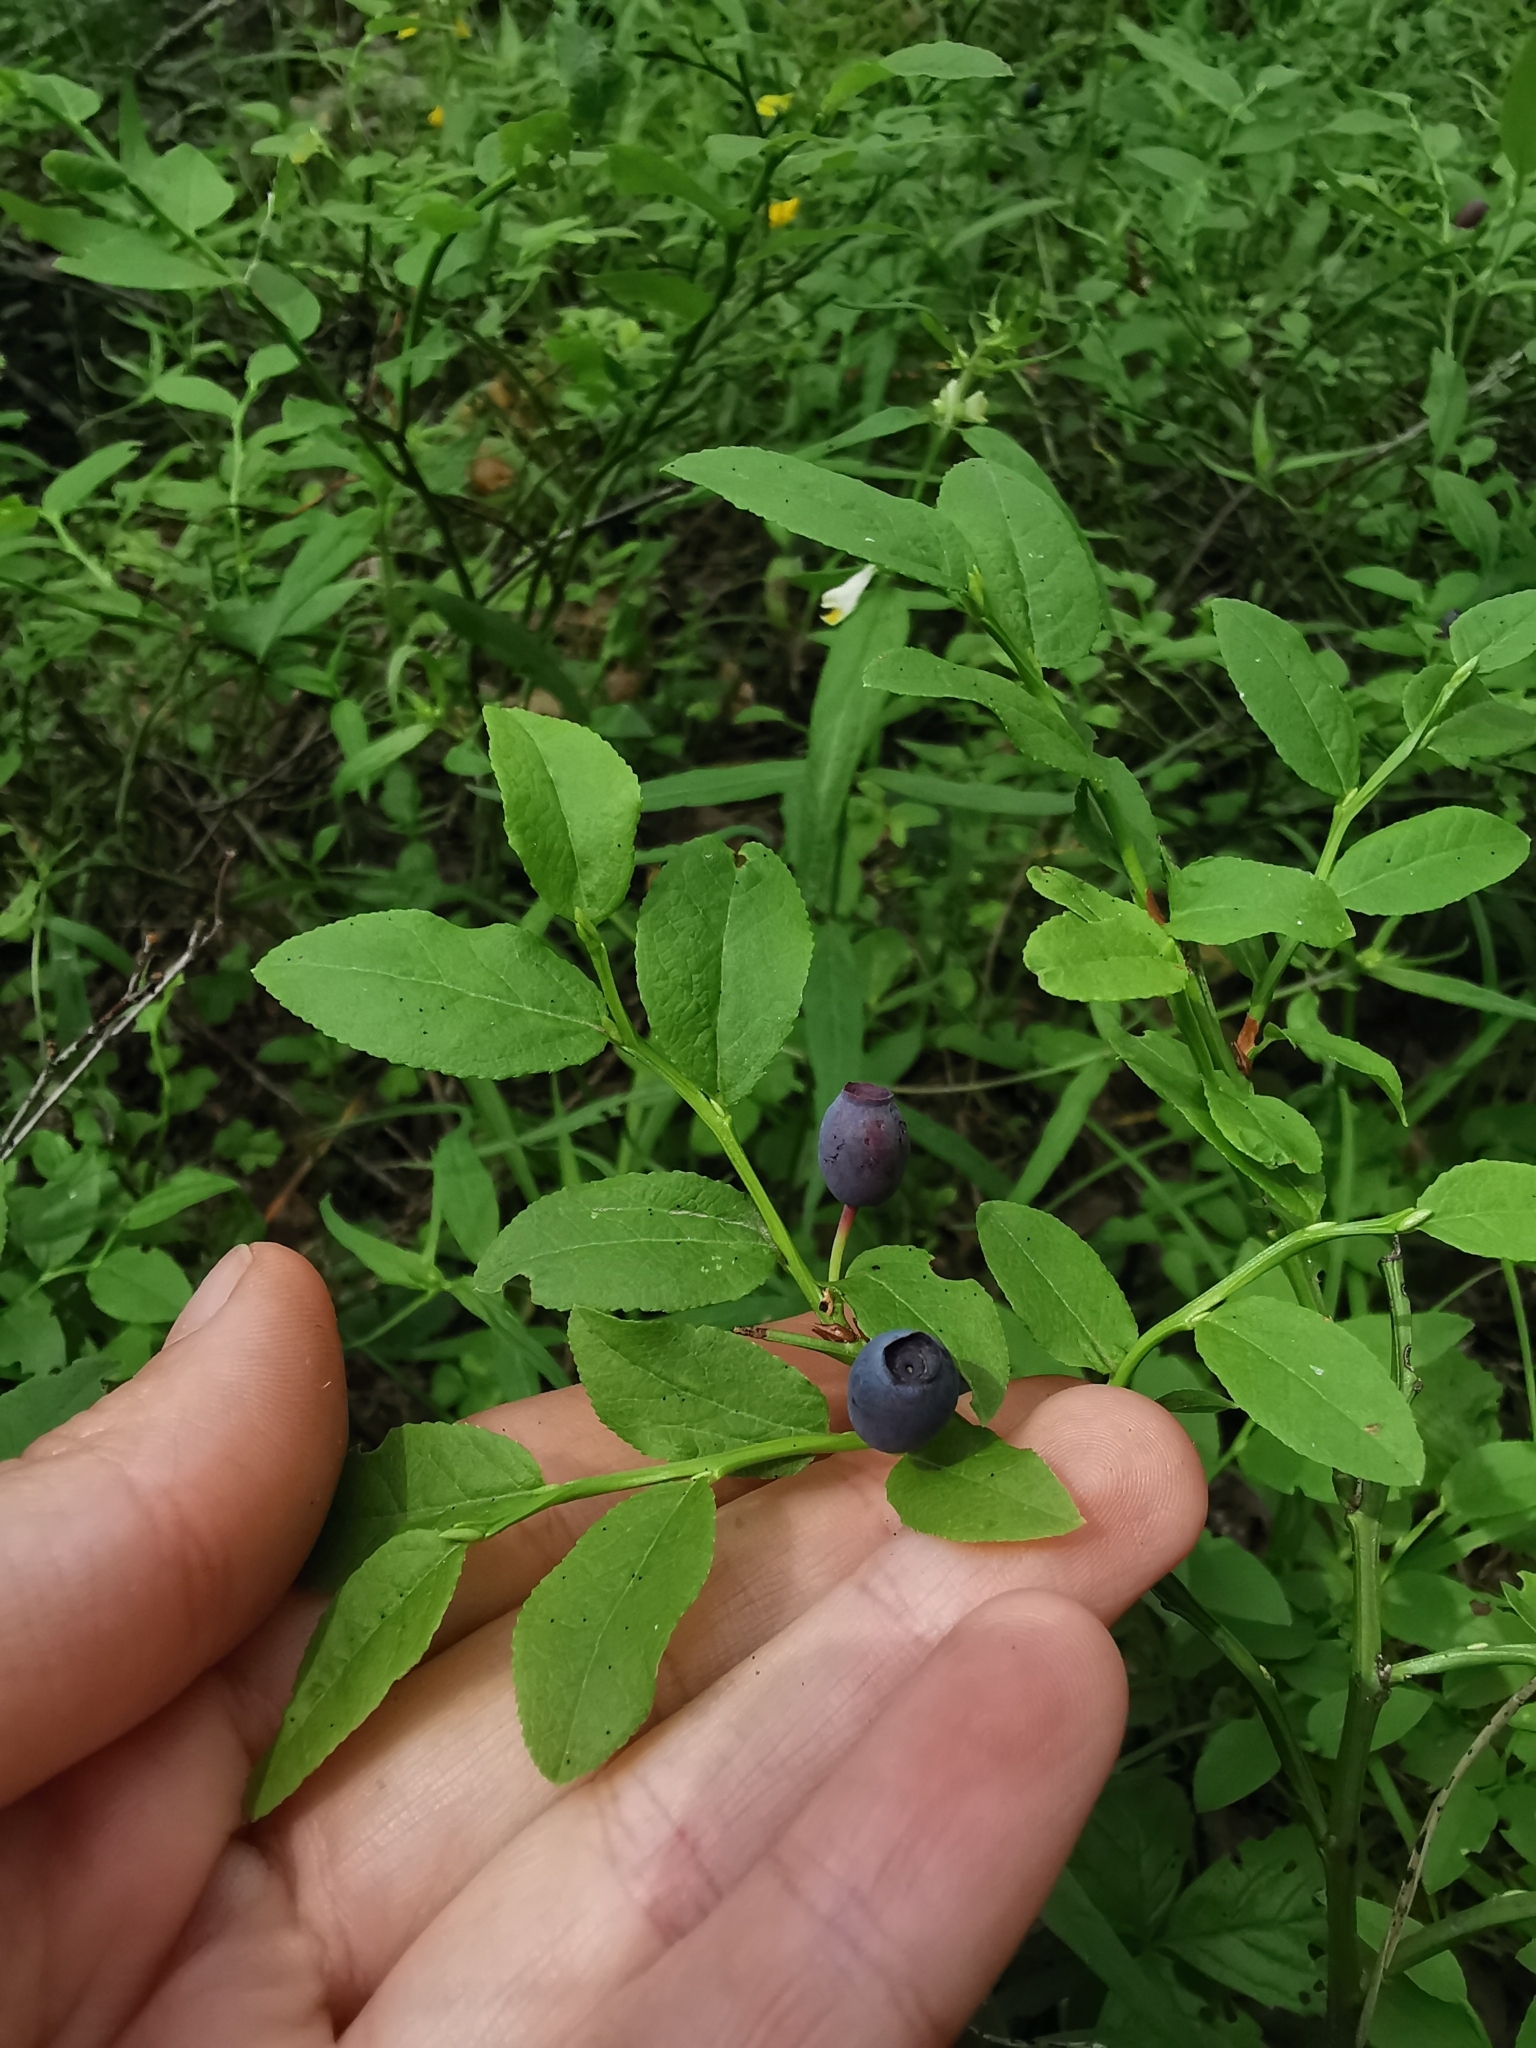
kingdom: Plantae
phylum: Tracheophyta
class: Magnoliopsida
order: Ericales
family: Ericaceae
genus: Vaccinium
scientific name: Vaccinium myrtillus
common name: Bilberry
